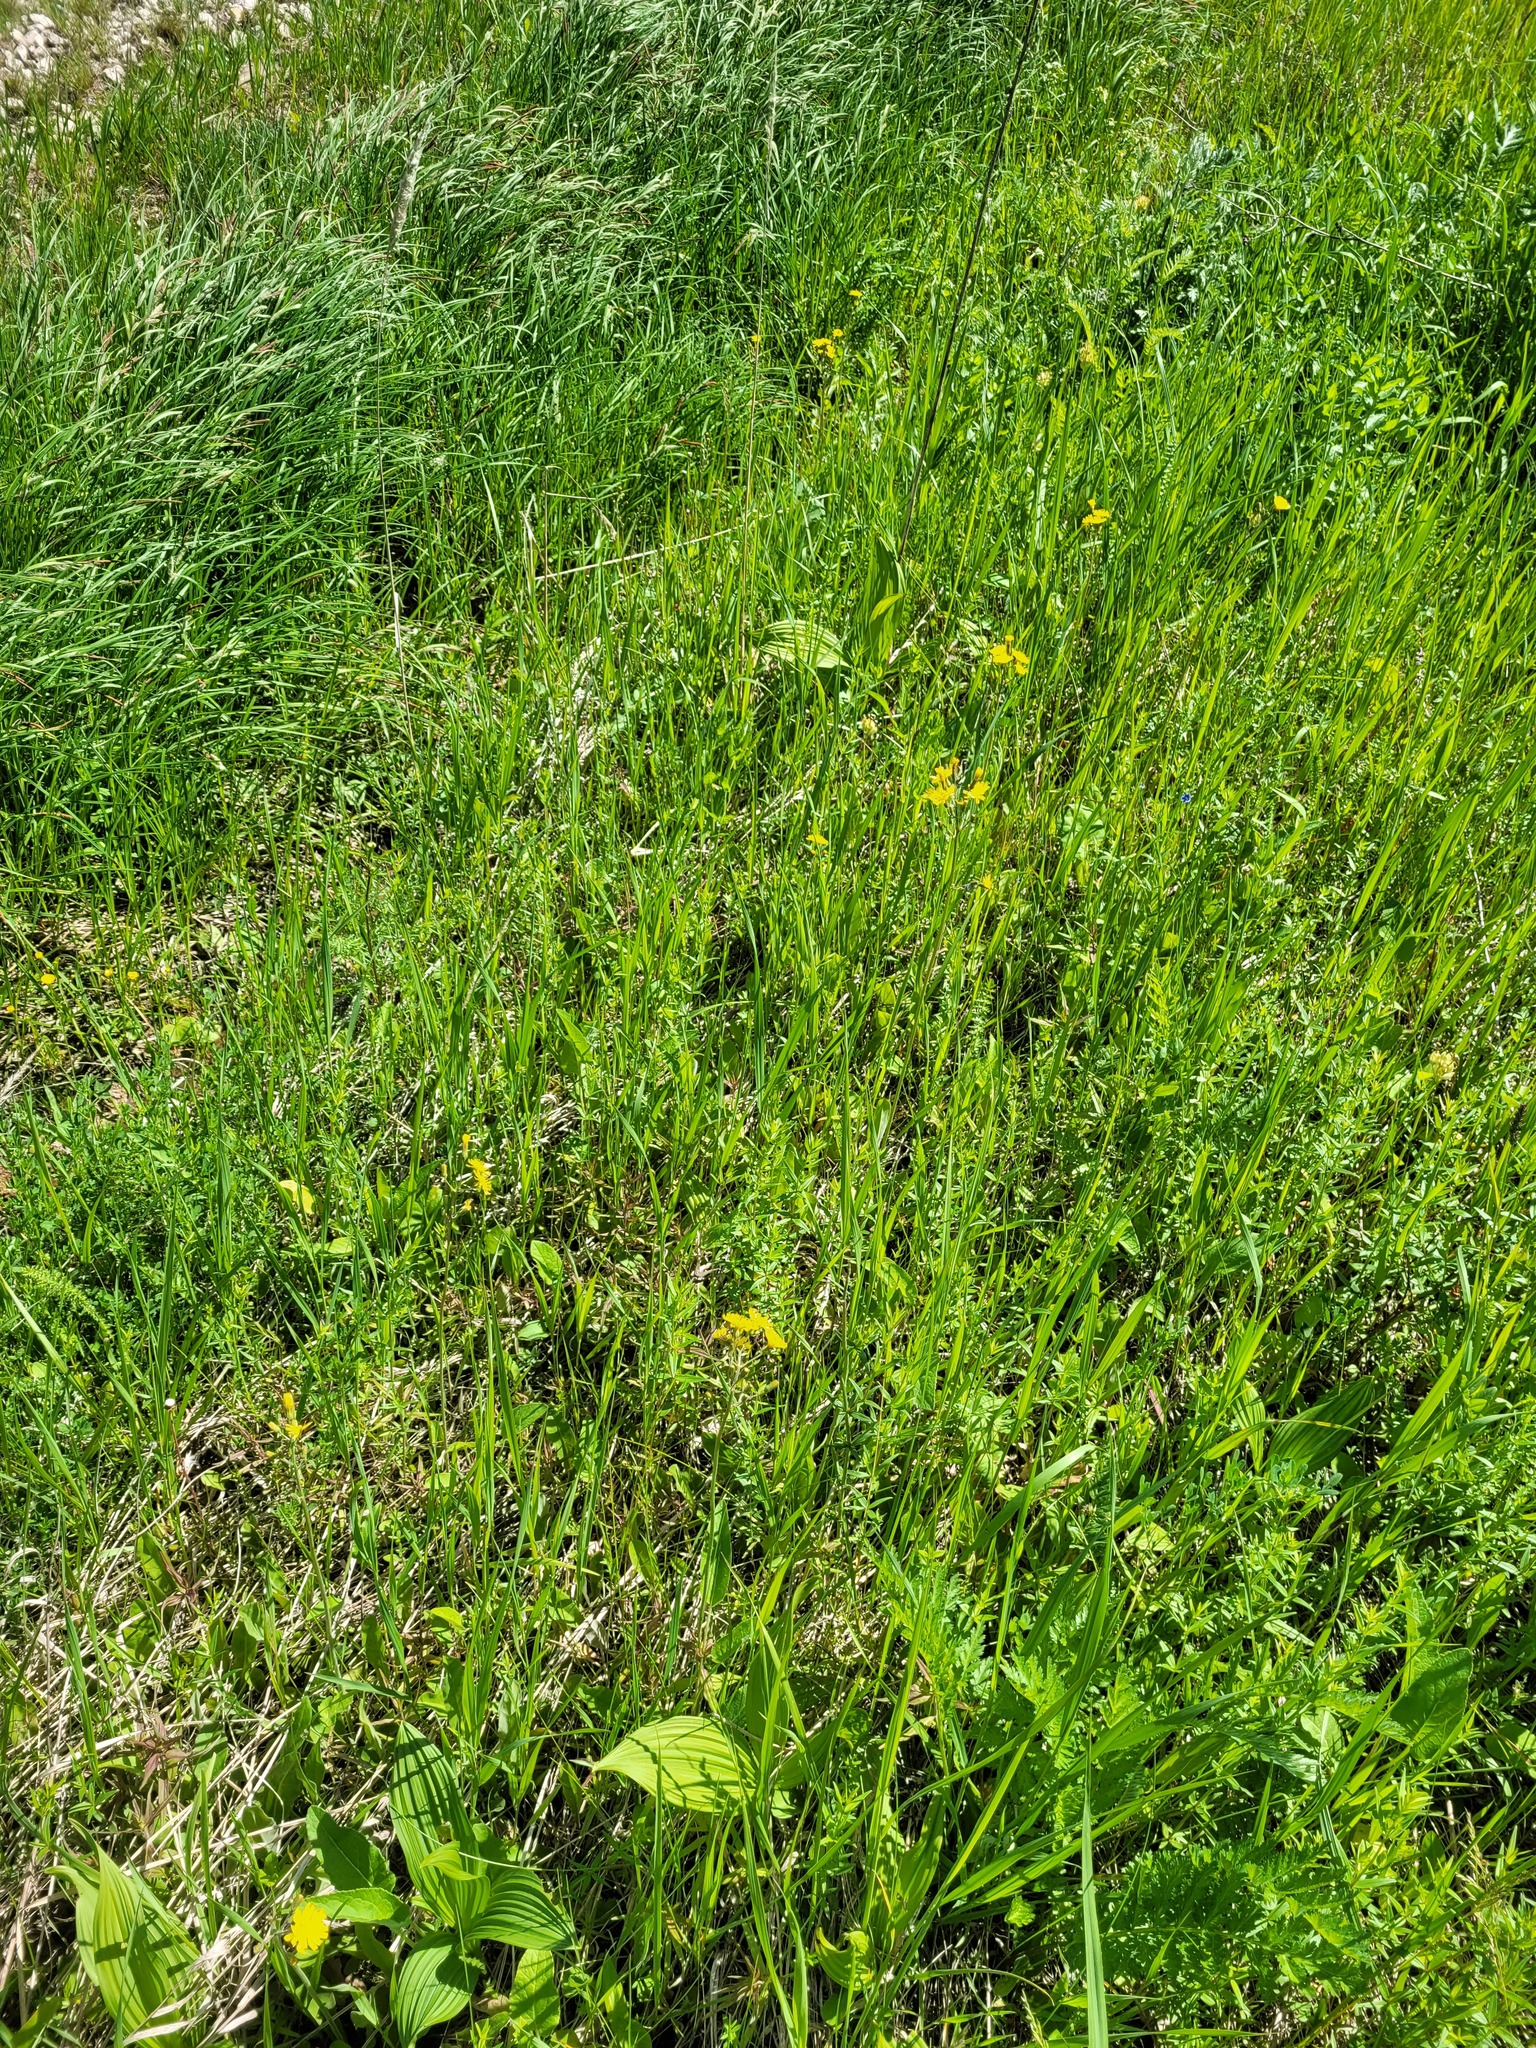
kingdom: Plantae
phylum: Tracheophyta
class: Magnoliopsida
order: Asterales
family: Asteraceae
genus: Crepis
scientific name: Crepis praemorsa
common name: Leafless hawk's-beard
